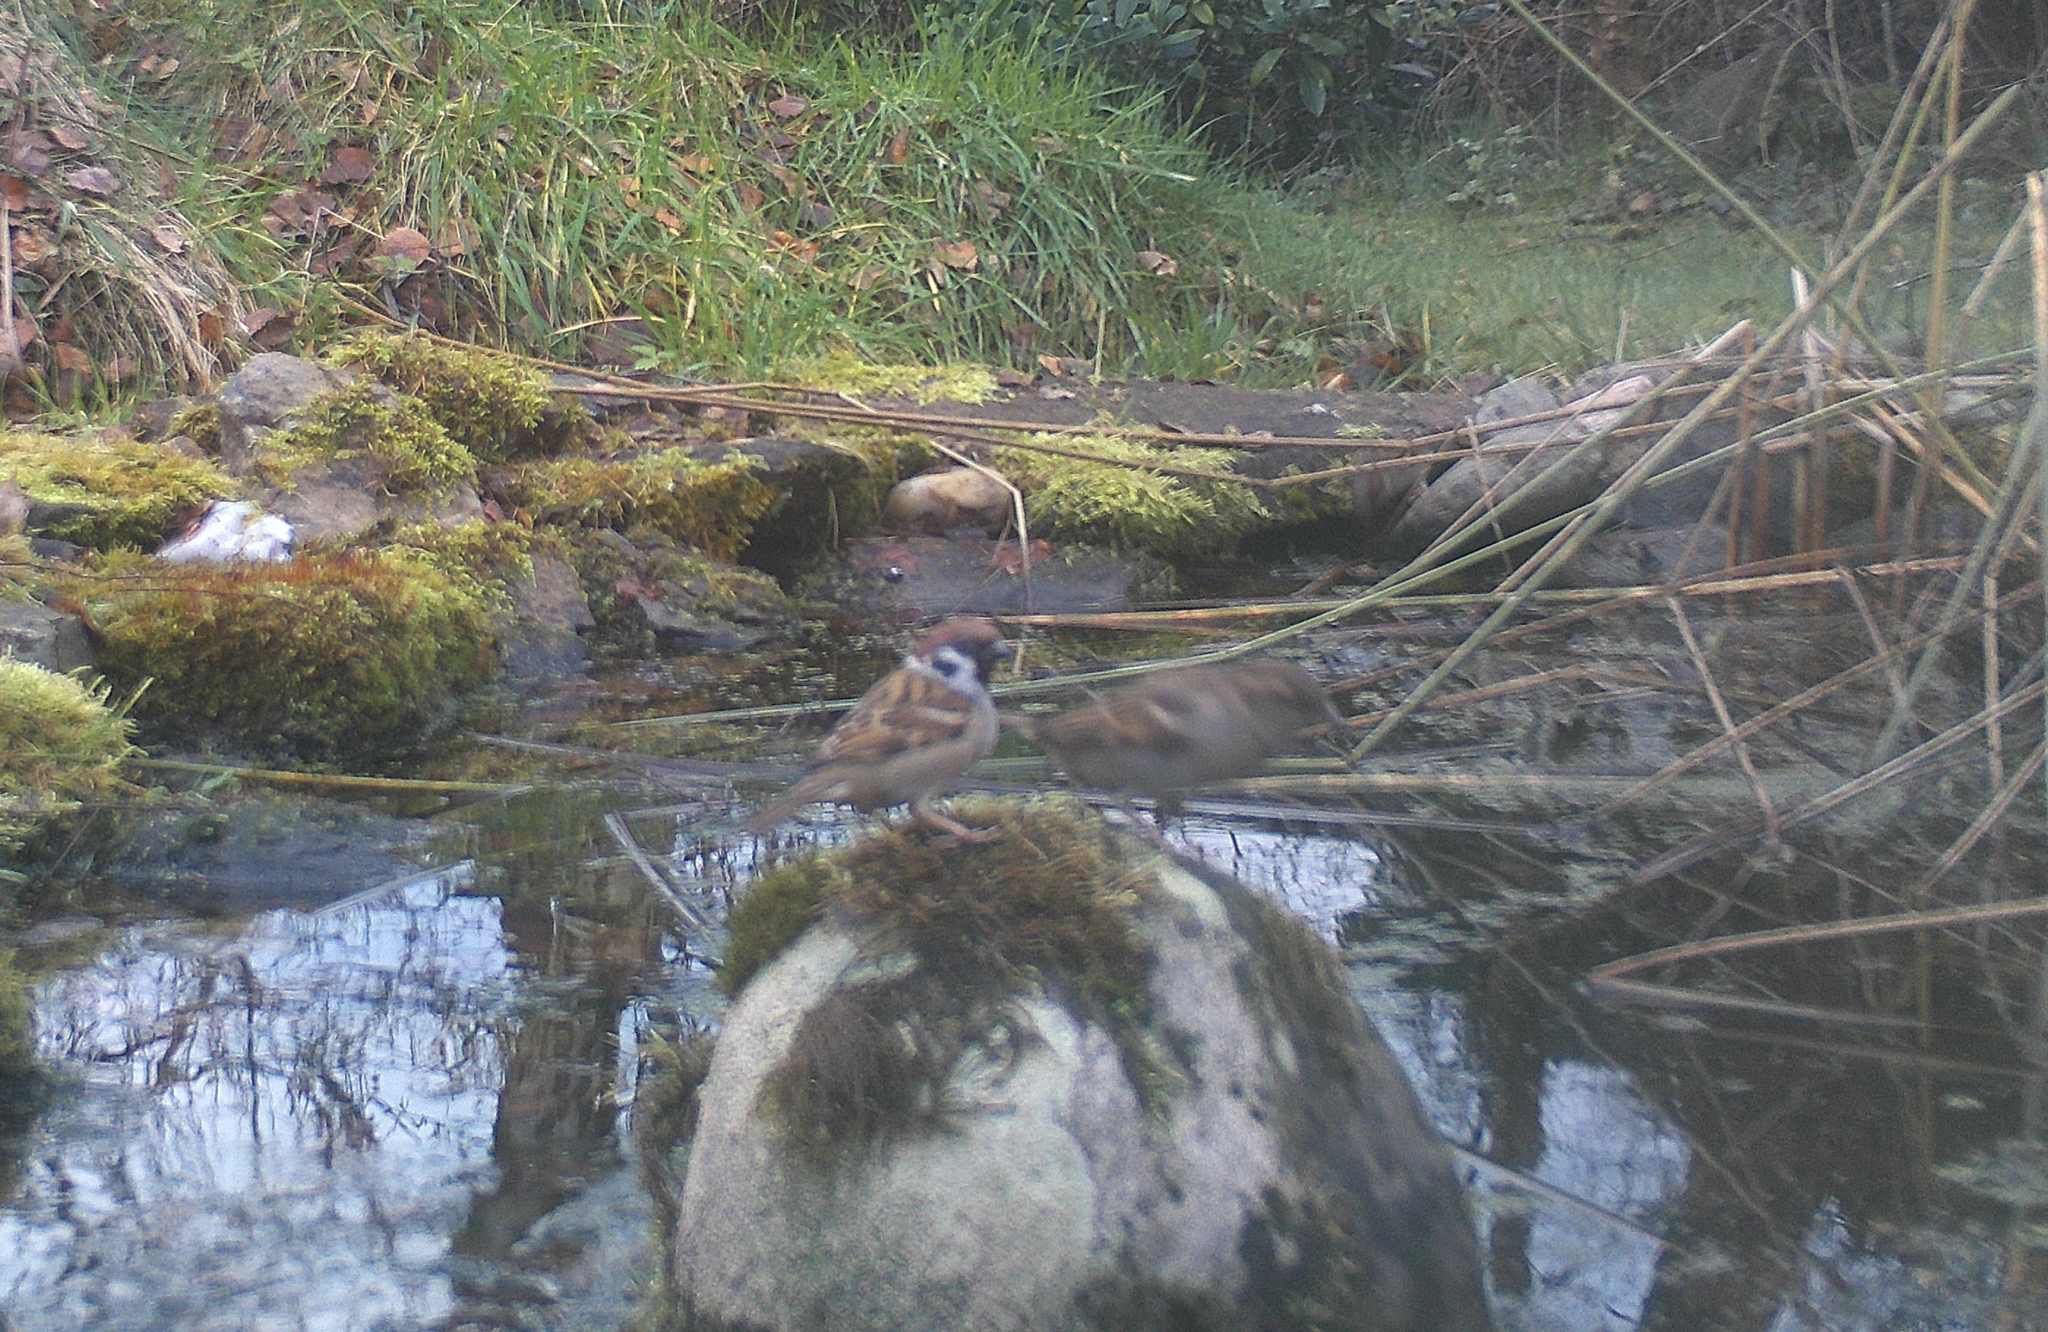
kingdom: Animalia
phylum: Chordata
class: Aves
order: Passeriformes
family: Passeridae
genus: Passer
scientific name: Passer montanus
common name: Eurasian tree sparrow
